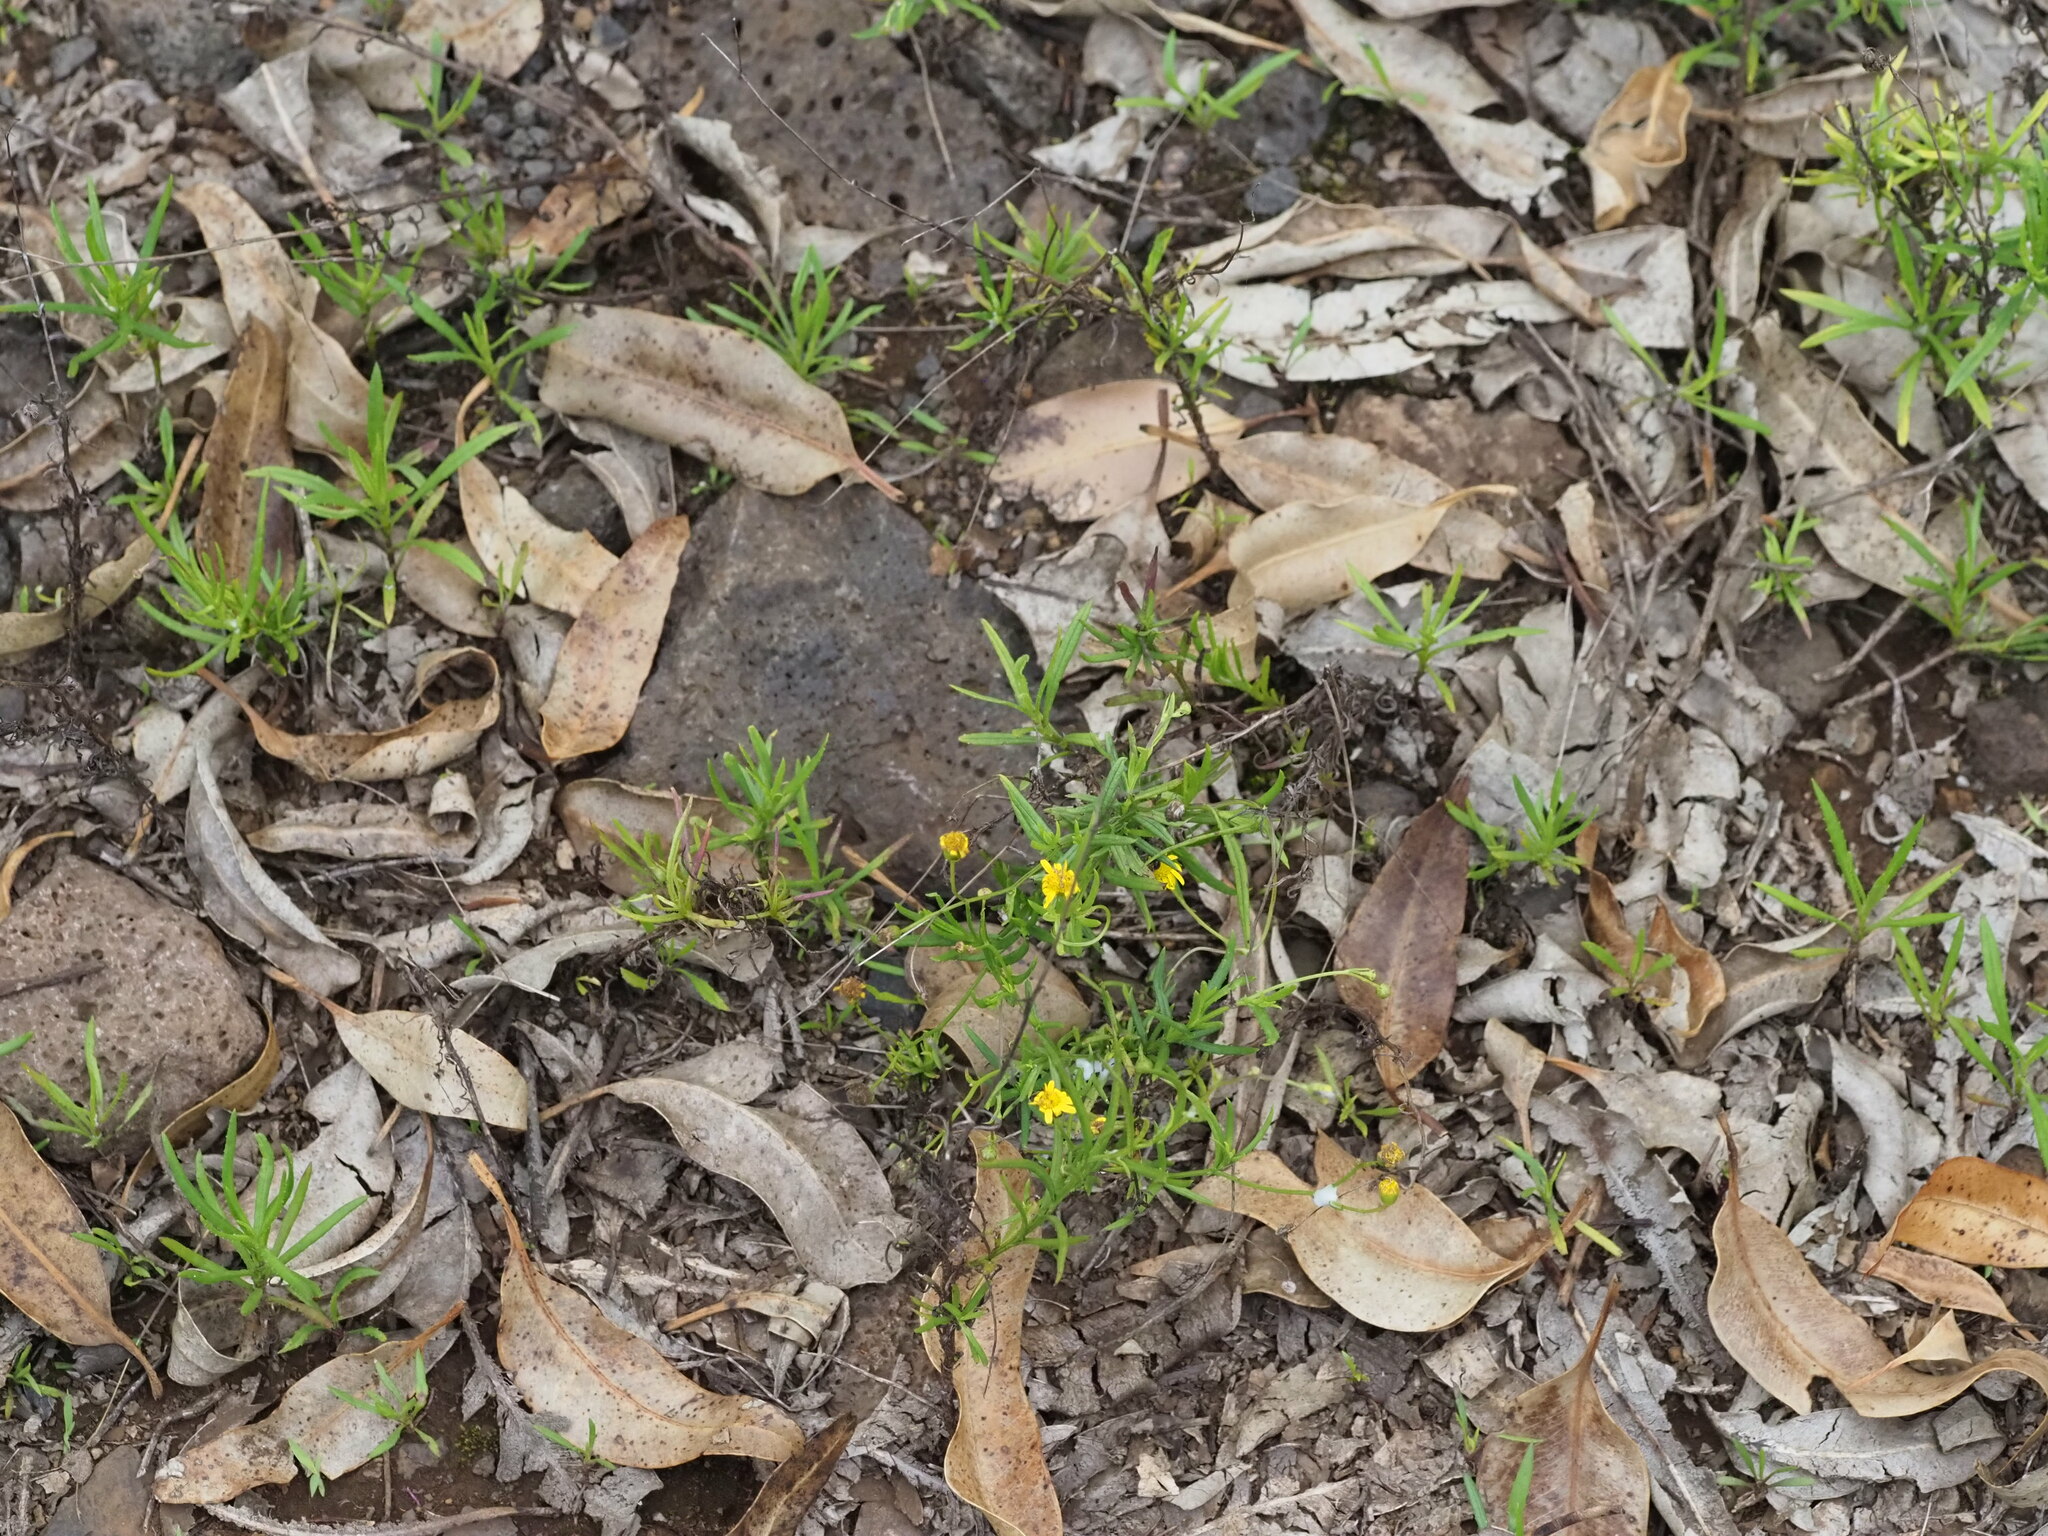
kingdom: Plantae
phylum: Tracheophyta
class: Magnoliopsida
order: Asterales
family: Asteraceae
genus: Senecio
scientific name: Senecio madagascariensis
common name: Madagascar ragwort
